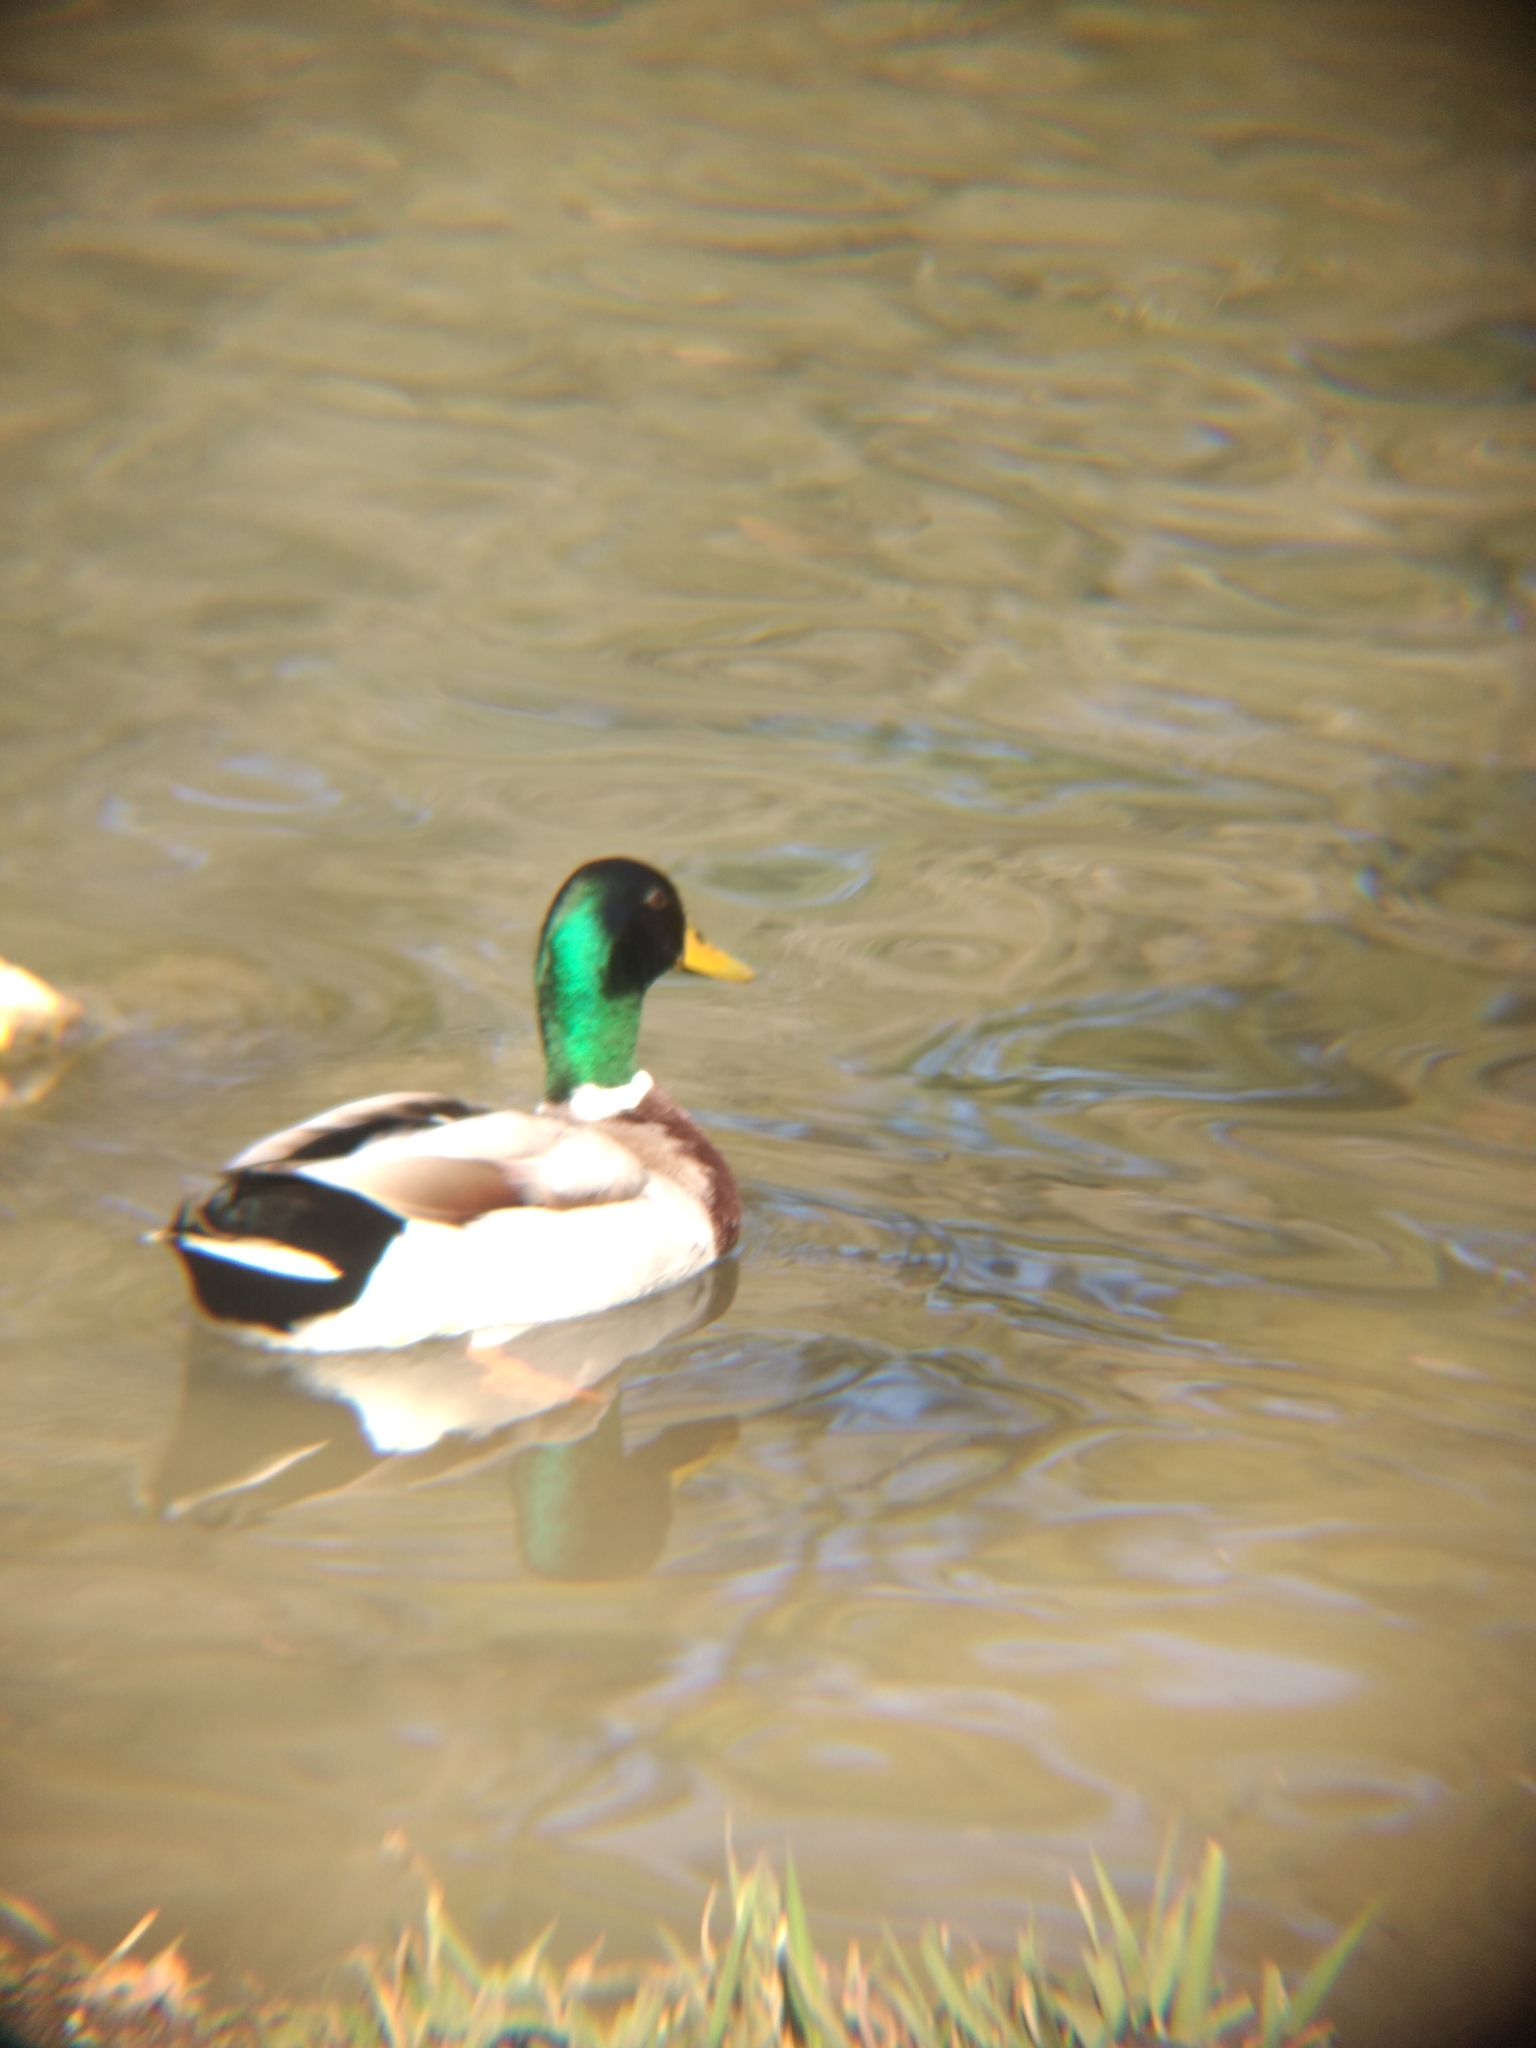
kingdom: Animalia
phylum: Chordata
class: Aves
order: Anseriformes
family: Anatidae
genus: Anas
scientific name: Anas platyrhynchos
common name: Mallard
